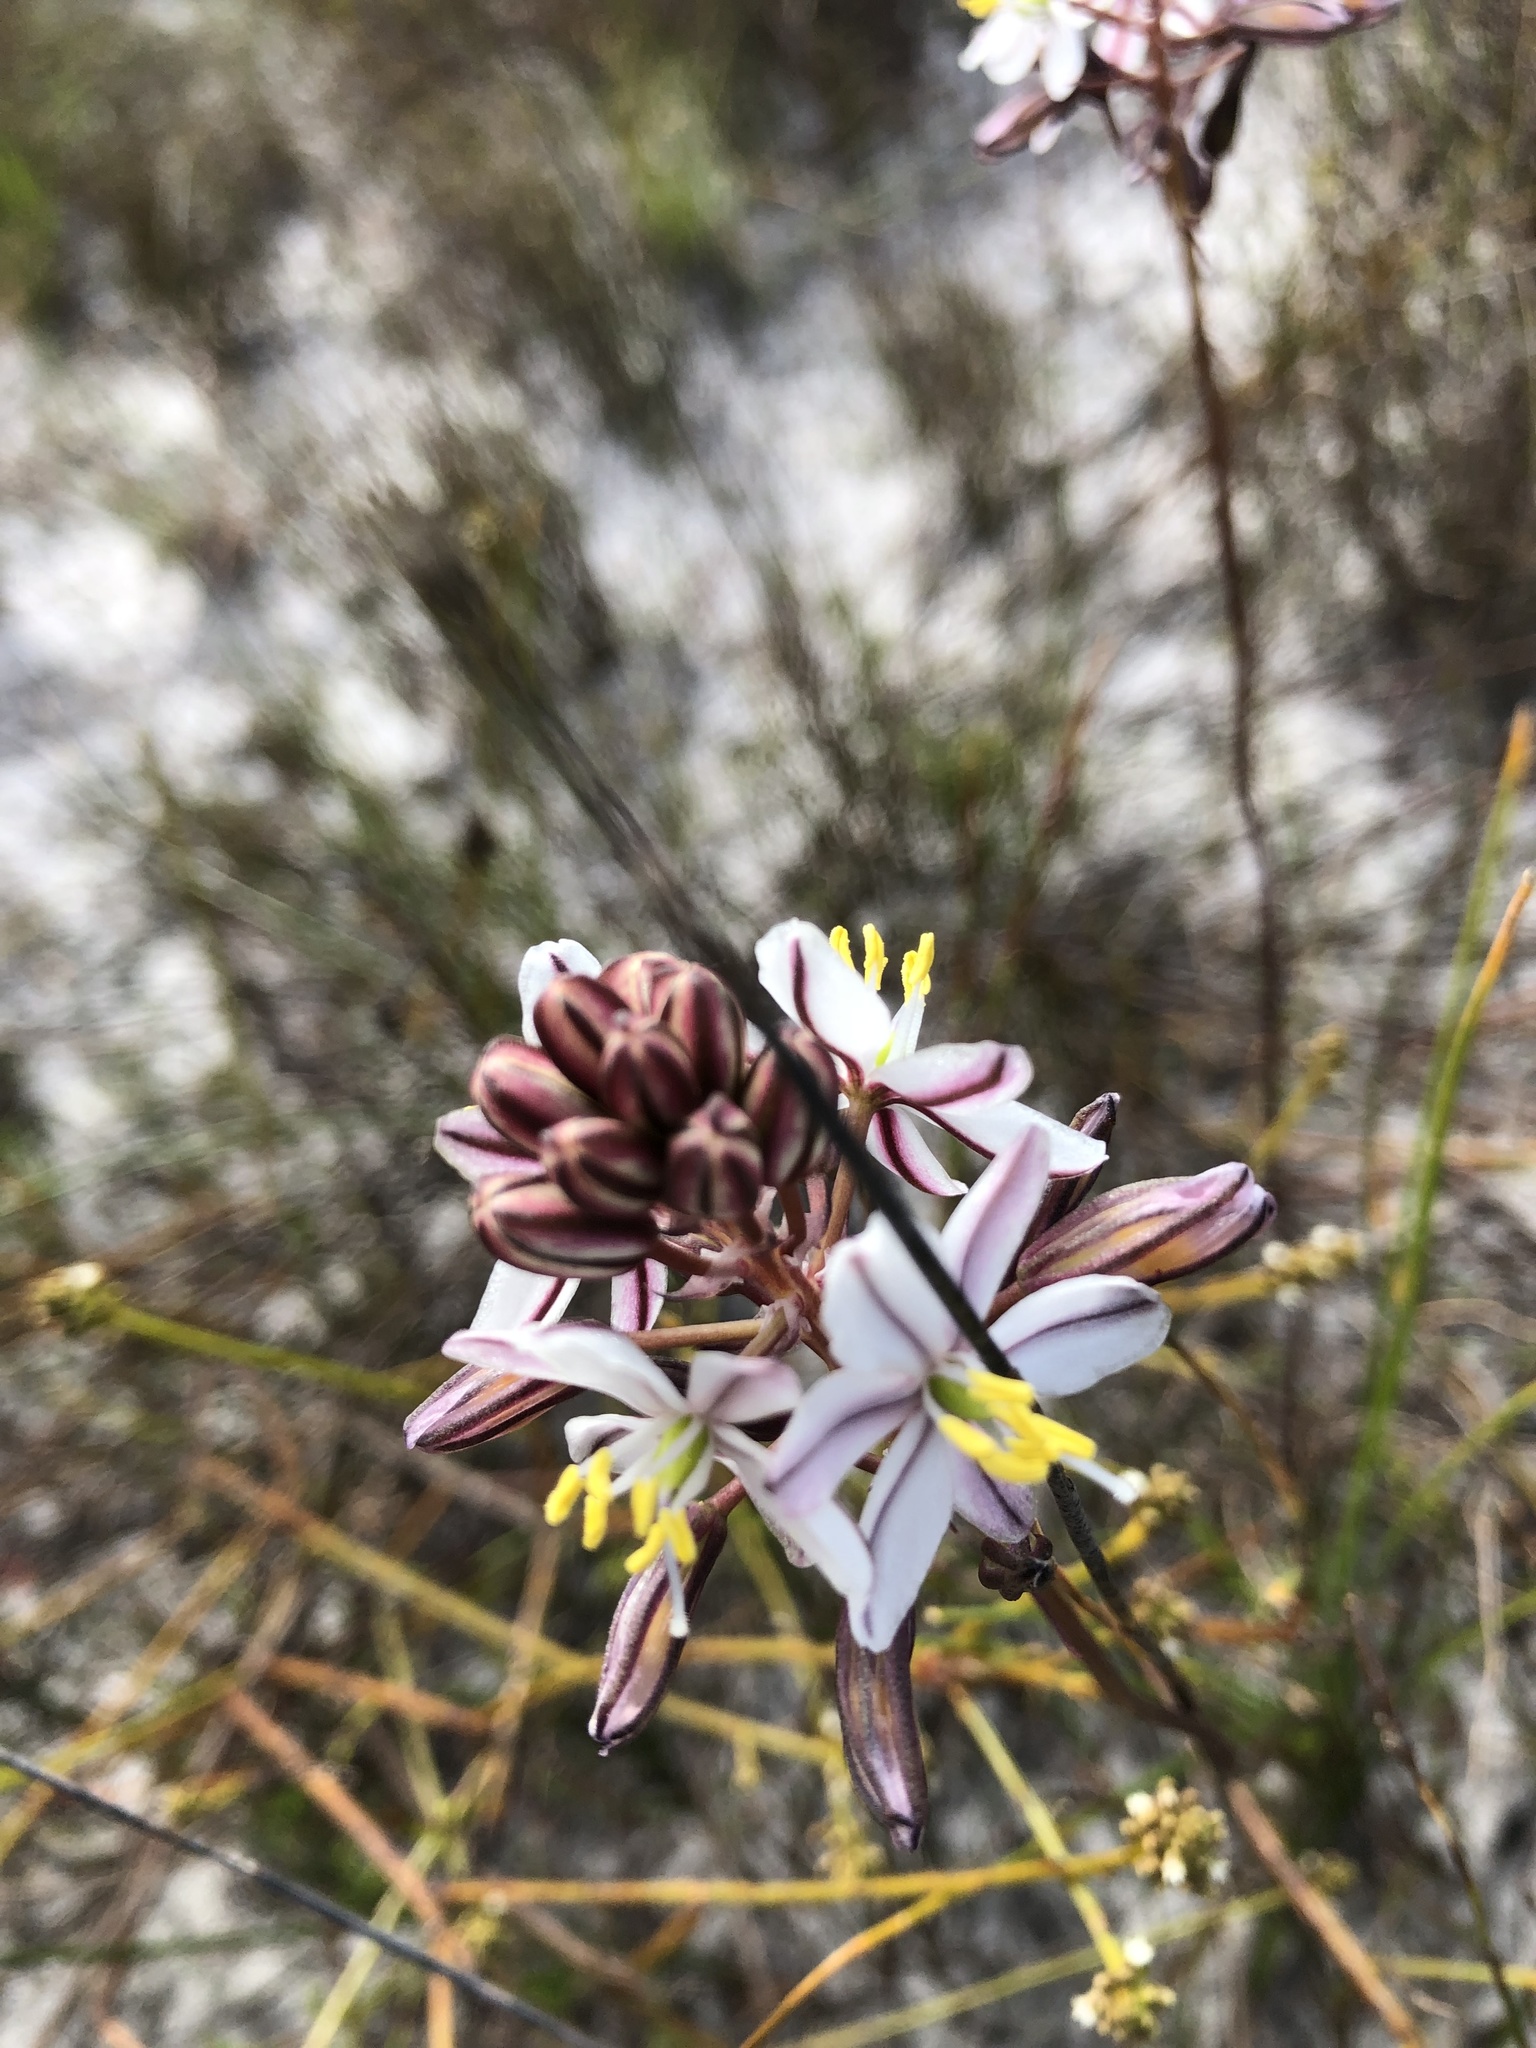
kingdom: Plantae
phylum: Tracheophyta
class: Liliopsida
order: Asparagales
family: Asparagaceae
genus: Drimia
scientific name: Drimia exuviata
